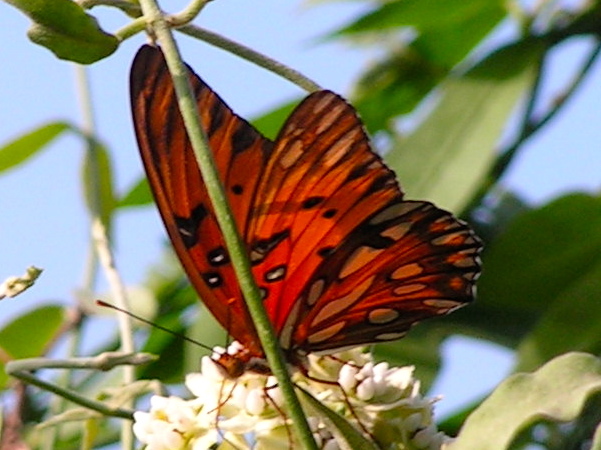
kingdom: Animalia
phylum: Arthropoda
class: Insecta
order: Lepidoptera
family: Nymphalidae
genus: Dione
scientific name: Dione vanillae
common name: Gulf fritillary
